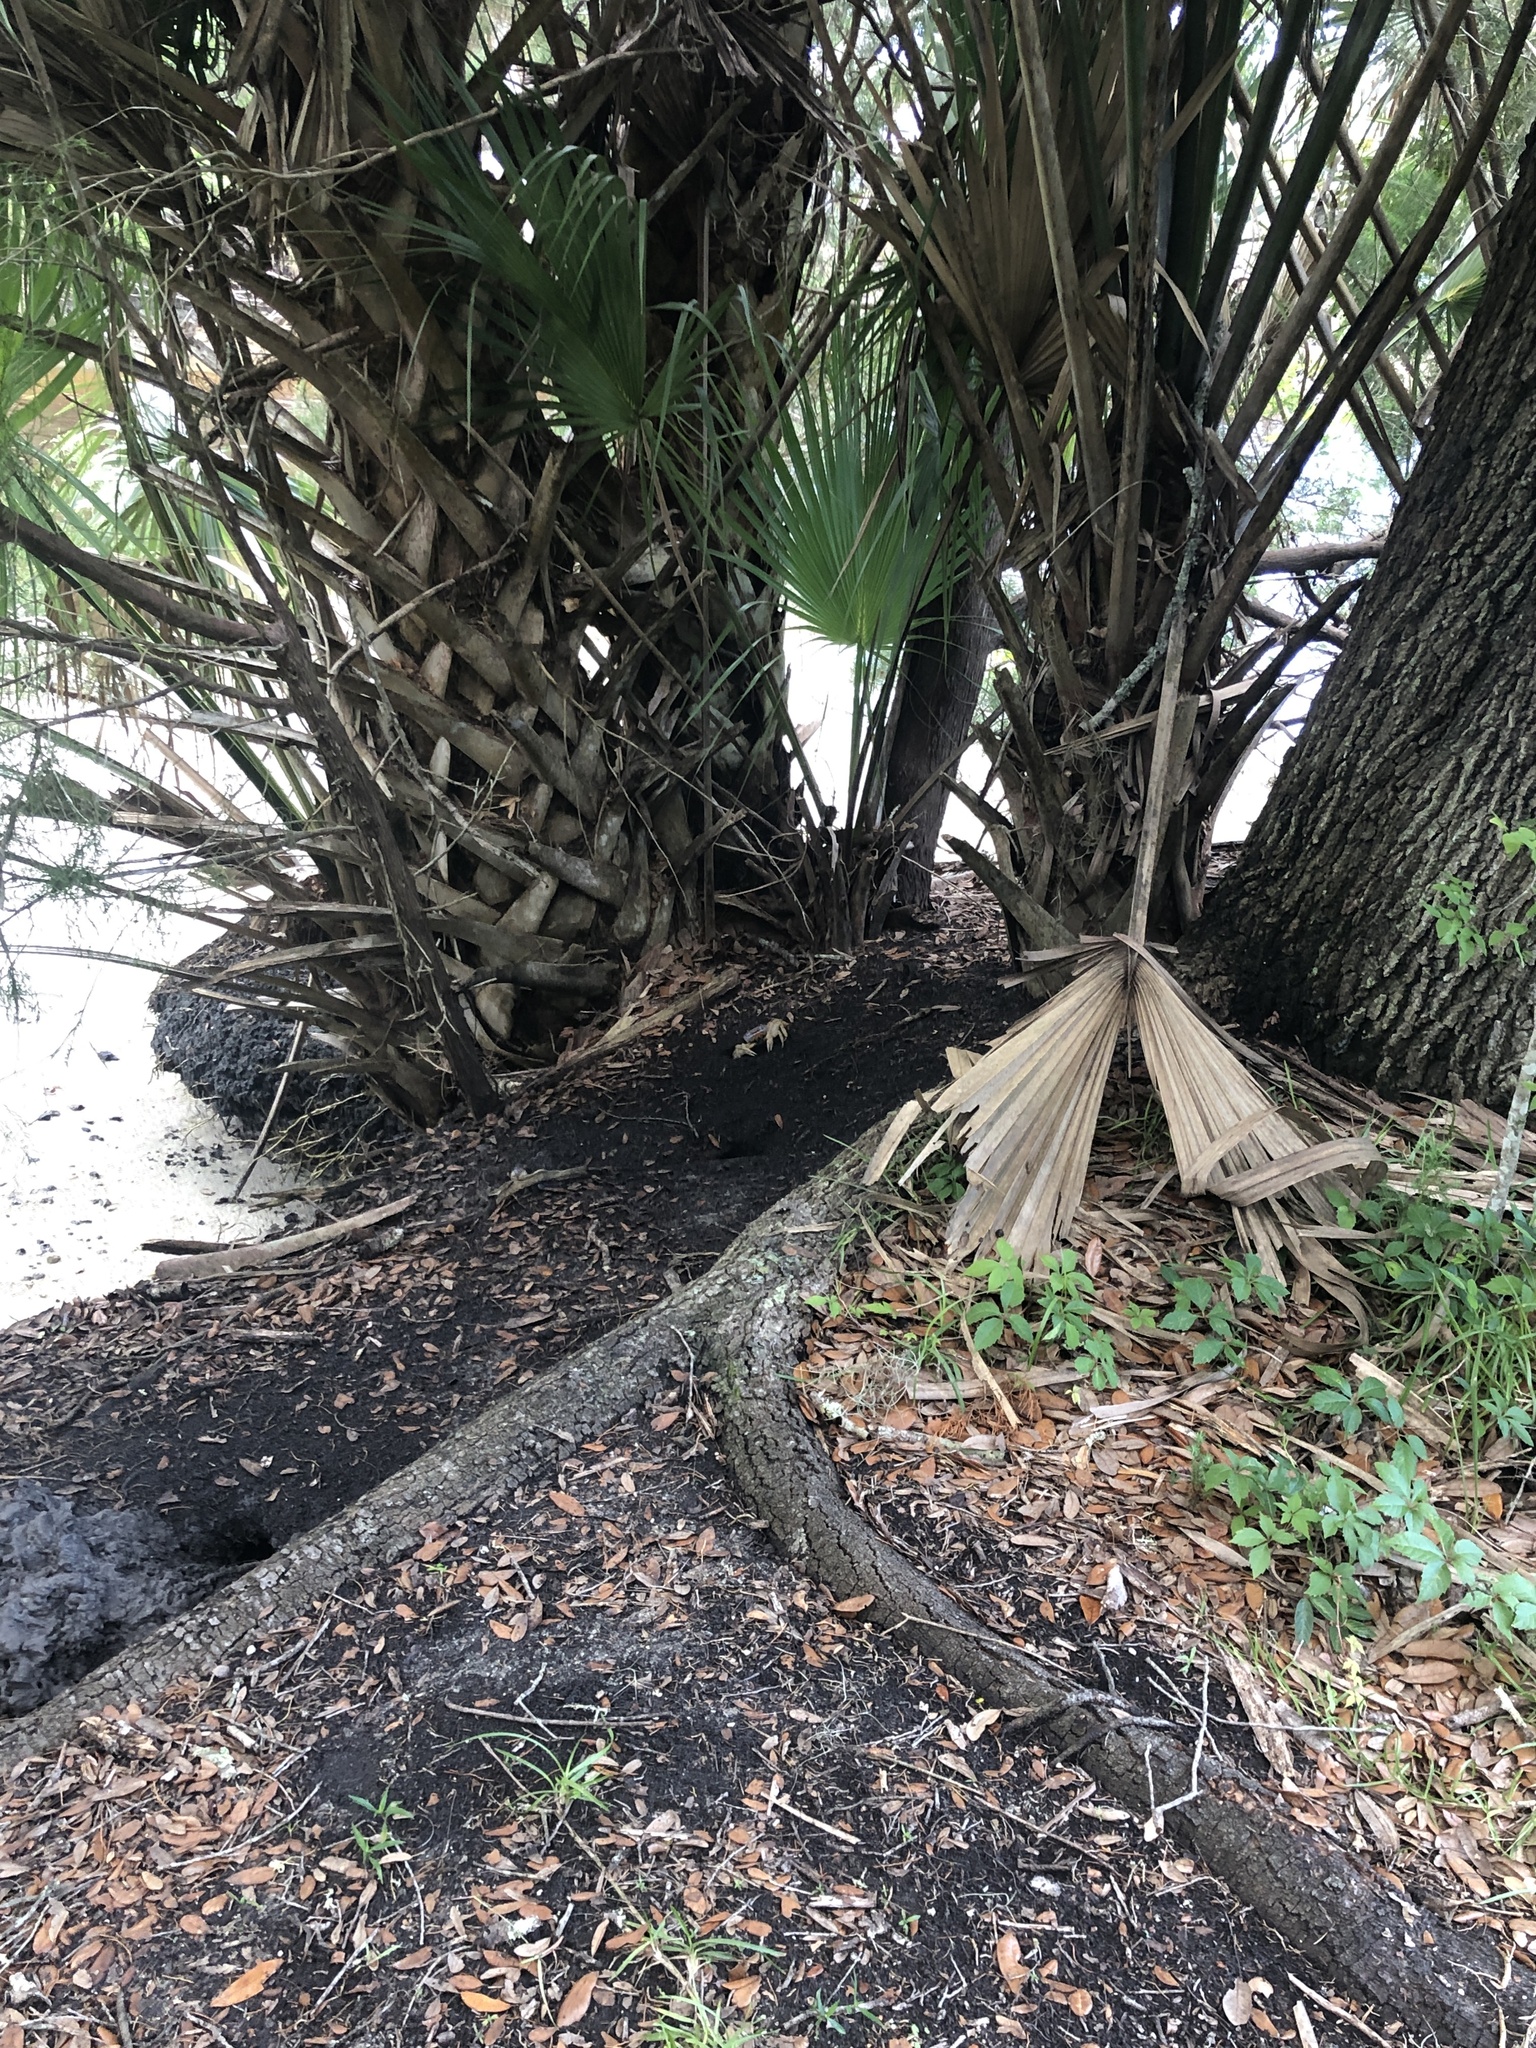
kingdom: Animalia
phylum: Arthropoda
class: Malacostraca
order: Decapoda
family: Gecarcinidae
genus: Cardisoma
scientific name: Cardisoma guanhumi
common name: Great land crab
